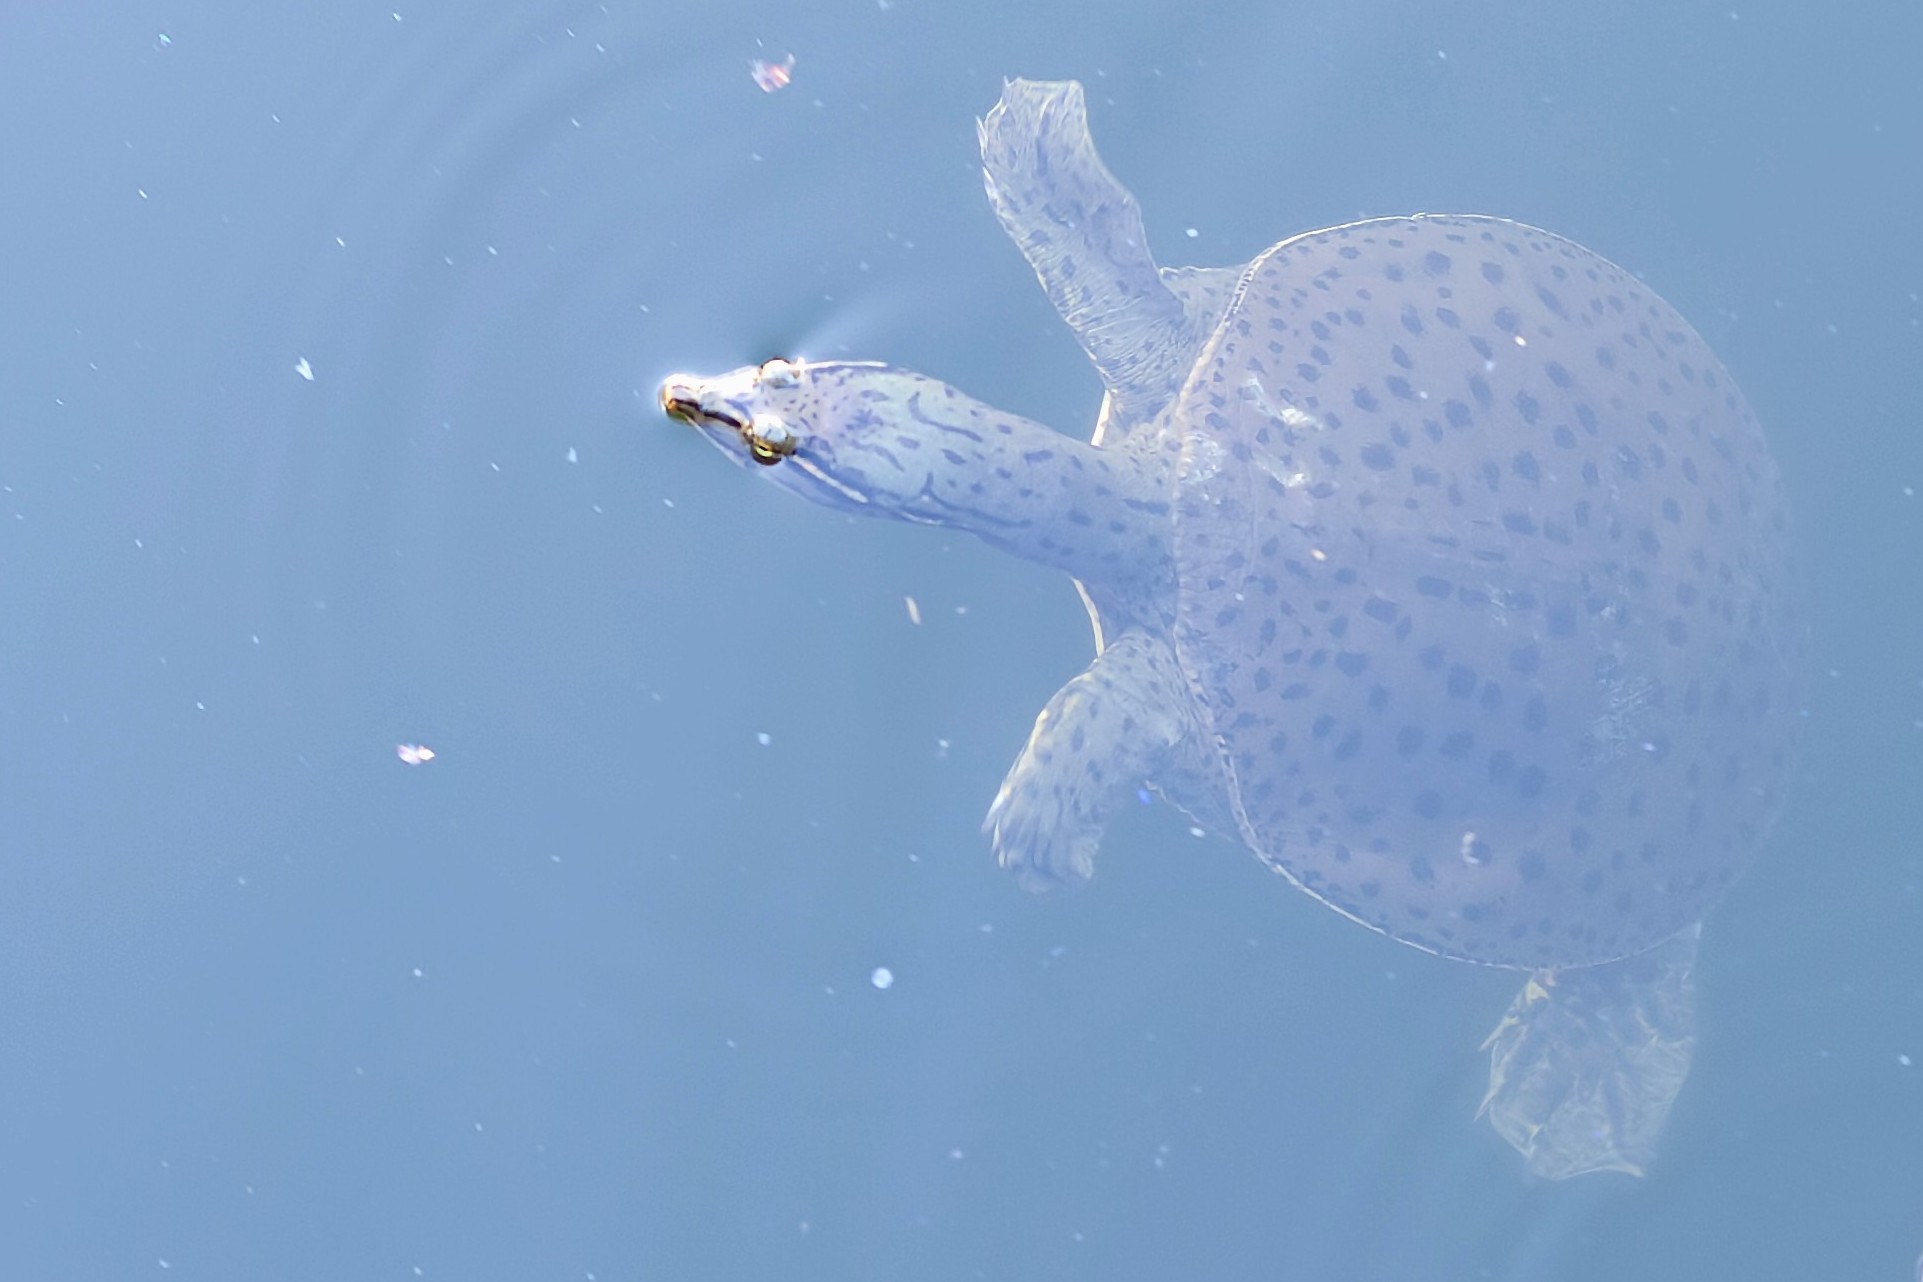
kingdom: Animalia
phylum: Chordata
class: Testudines
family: Trionychidae
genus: Apalone
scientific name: Apalone ferox
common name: Florida softshell turtle
